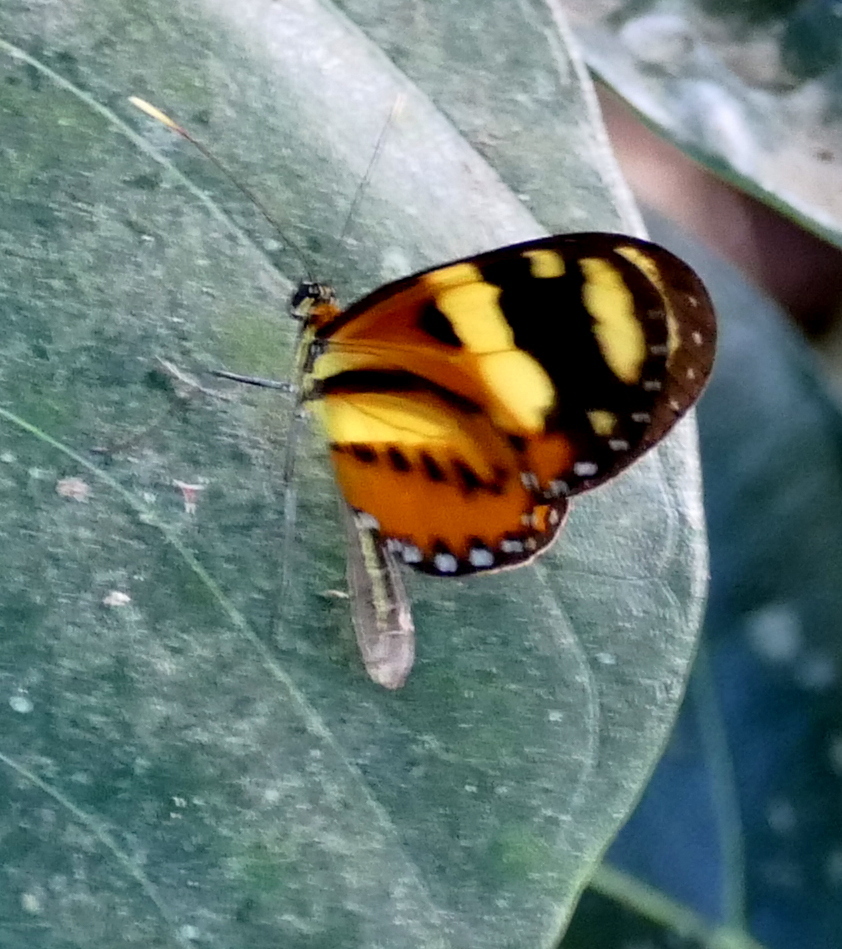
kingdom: Animalia
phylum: Arthropoda
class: Insecta
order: Lepidoptera
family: Nymphalidae
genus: Mechanitis
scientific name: Mechanitis lysimnia
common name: Lysimnia tigerwing
